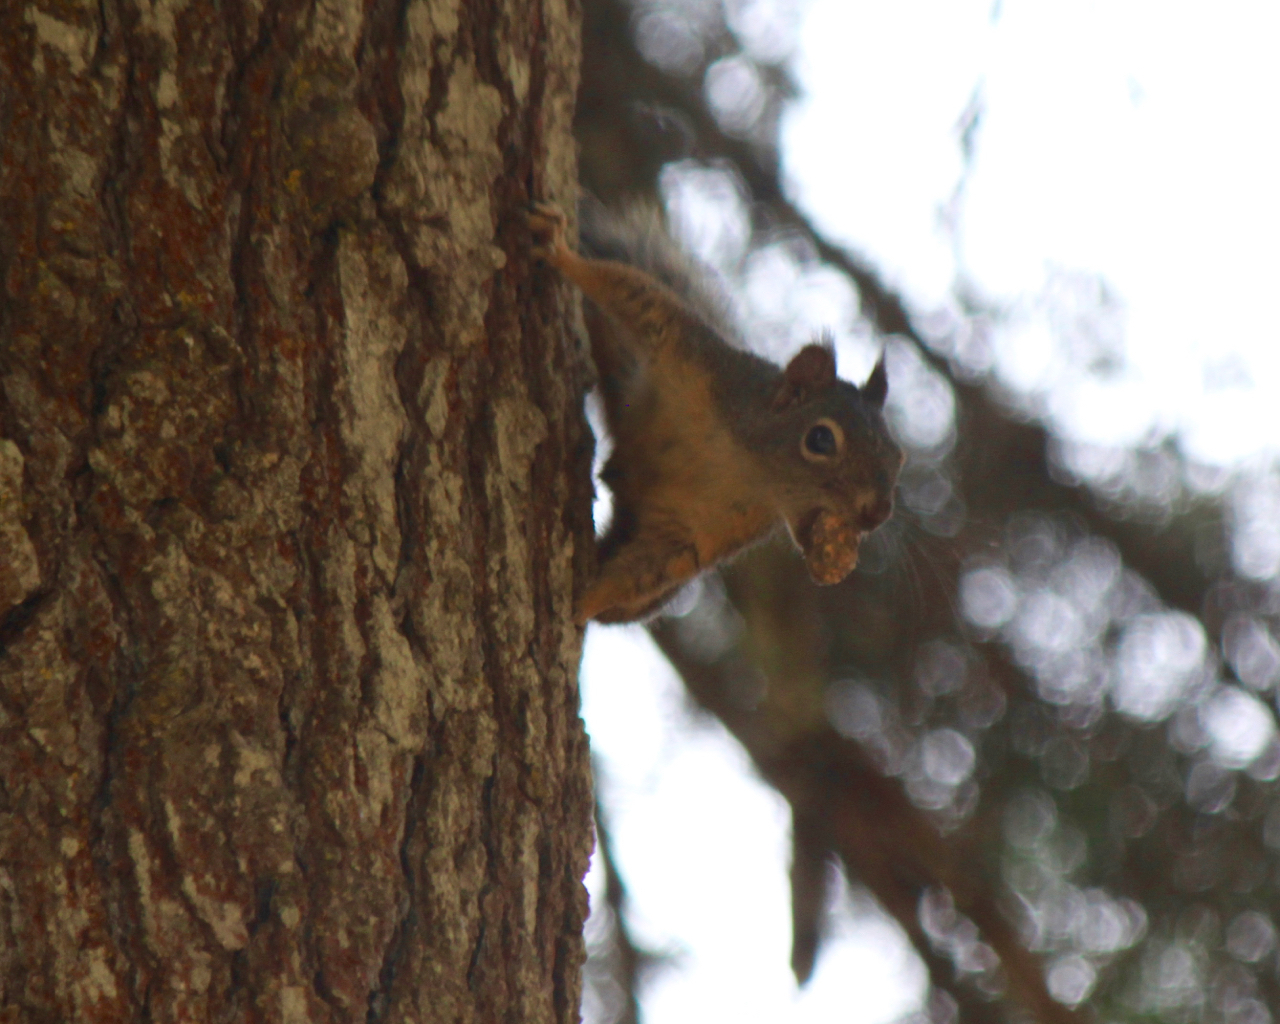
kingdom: Animalia
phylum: Chordata
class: Mammalia
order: Rodentia
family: Sciuridae
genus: Tamiasciurus
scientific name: Tamiasciurus douglasii
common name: Douglas's squirrel
